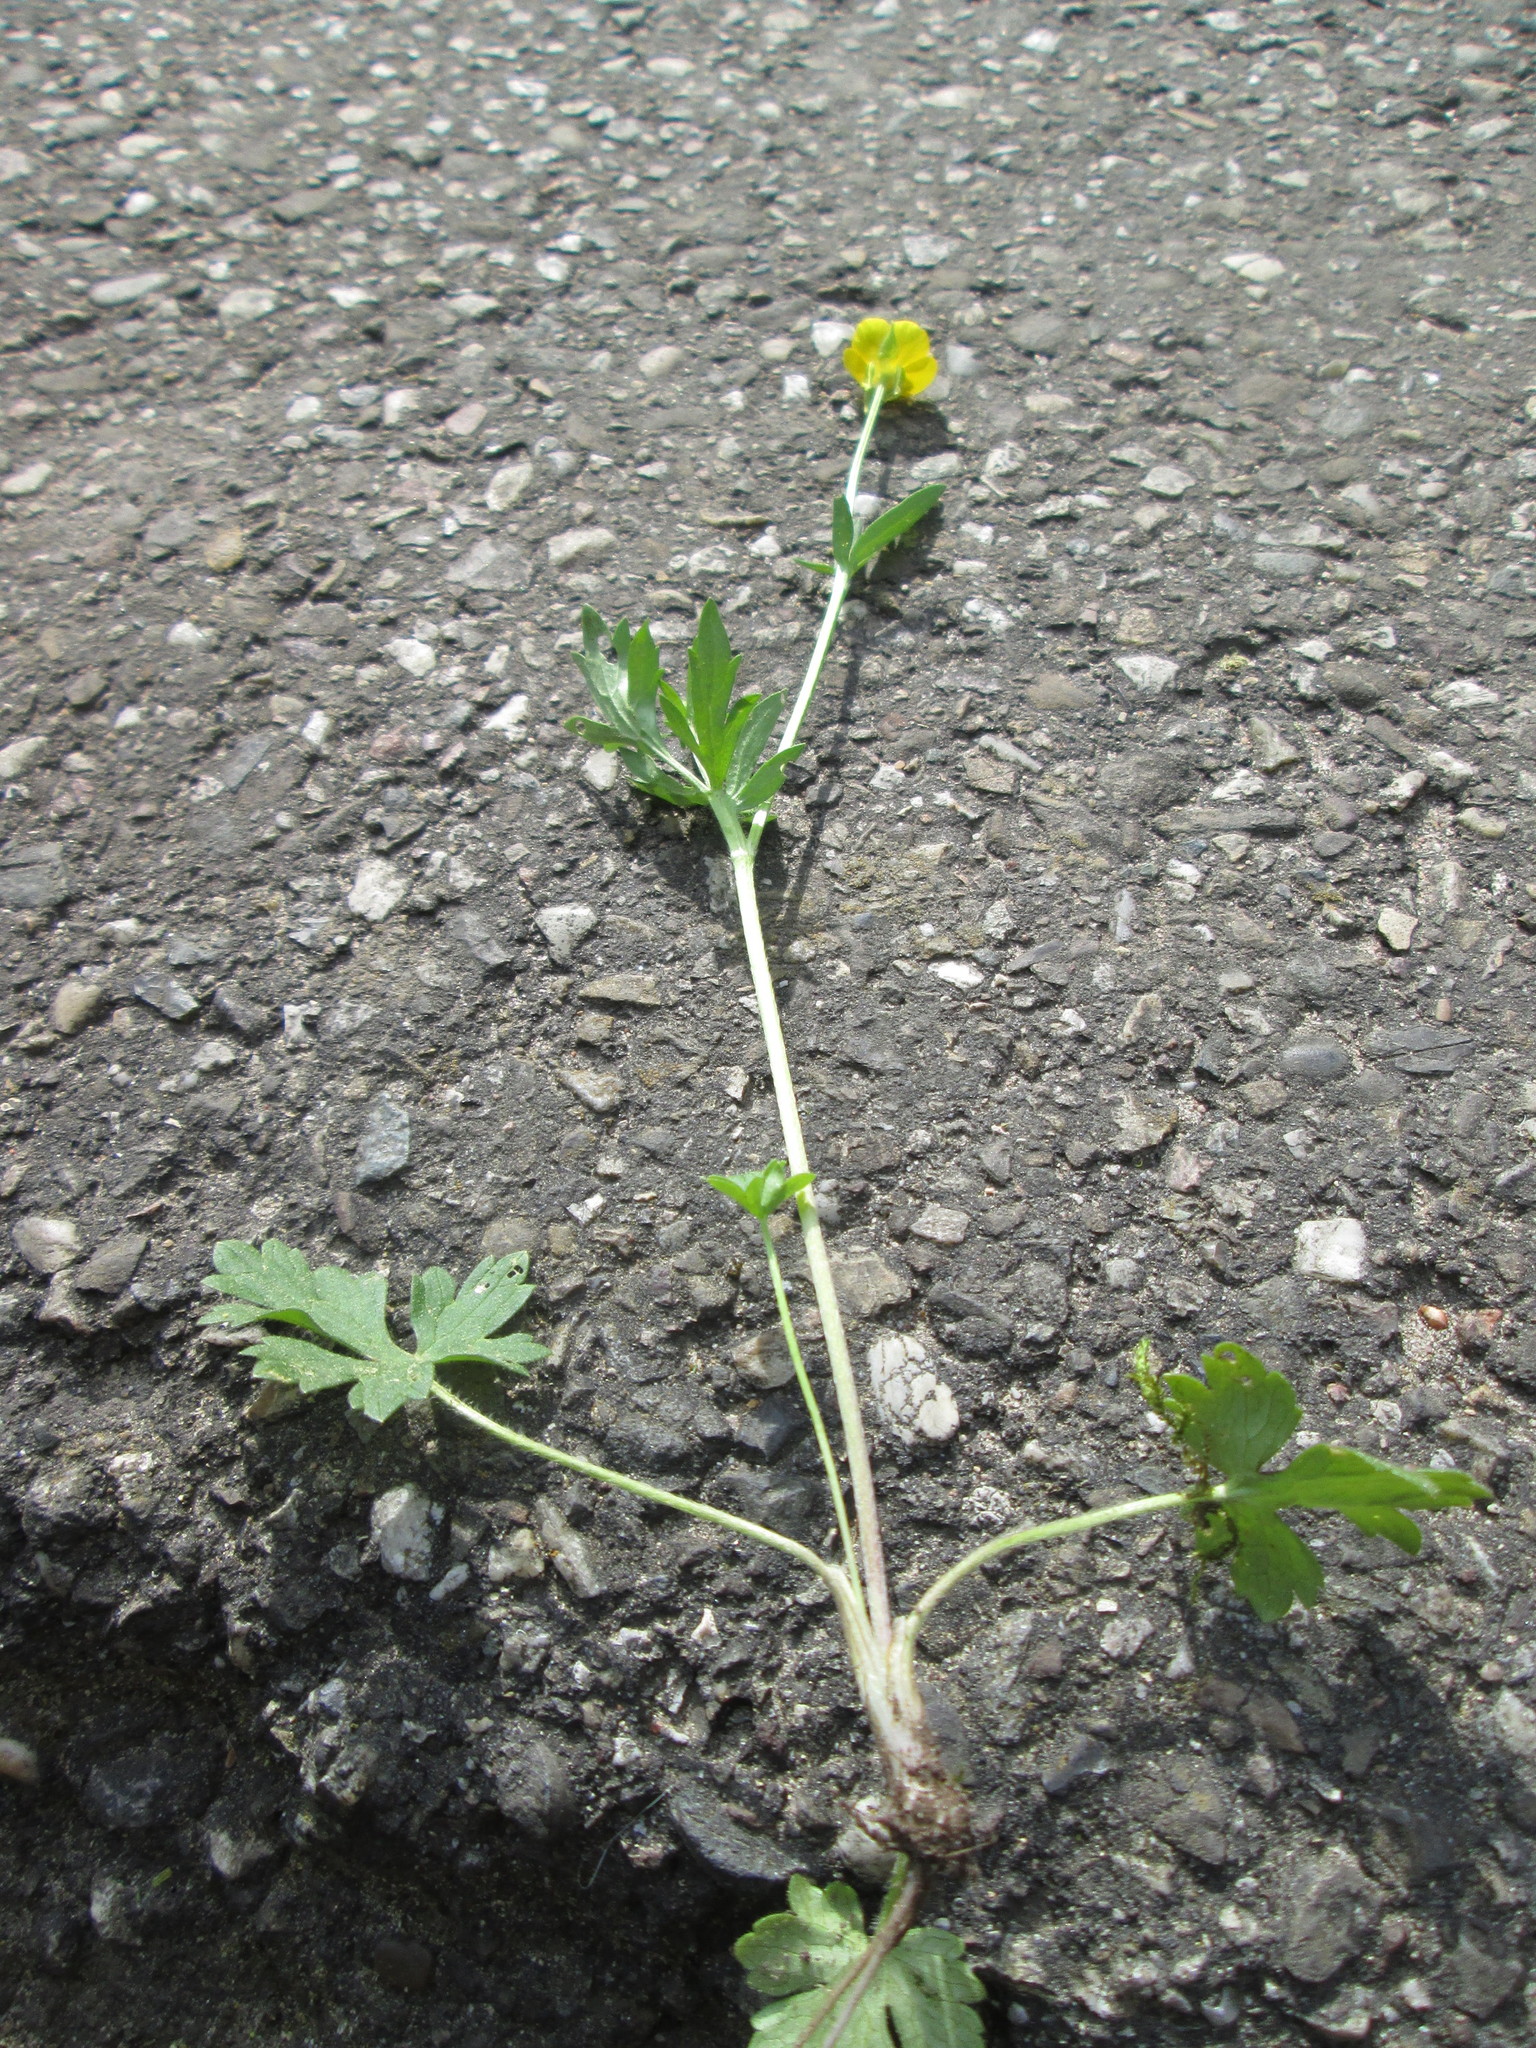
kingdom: Plantae
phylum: Tracheophyta
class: Magnoliopsida
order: Ranunculales
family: Ranunculaceae
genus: Ranunculus
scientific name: Ranunculus bulbosus
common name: Bulbous buttercup
